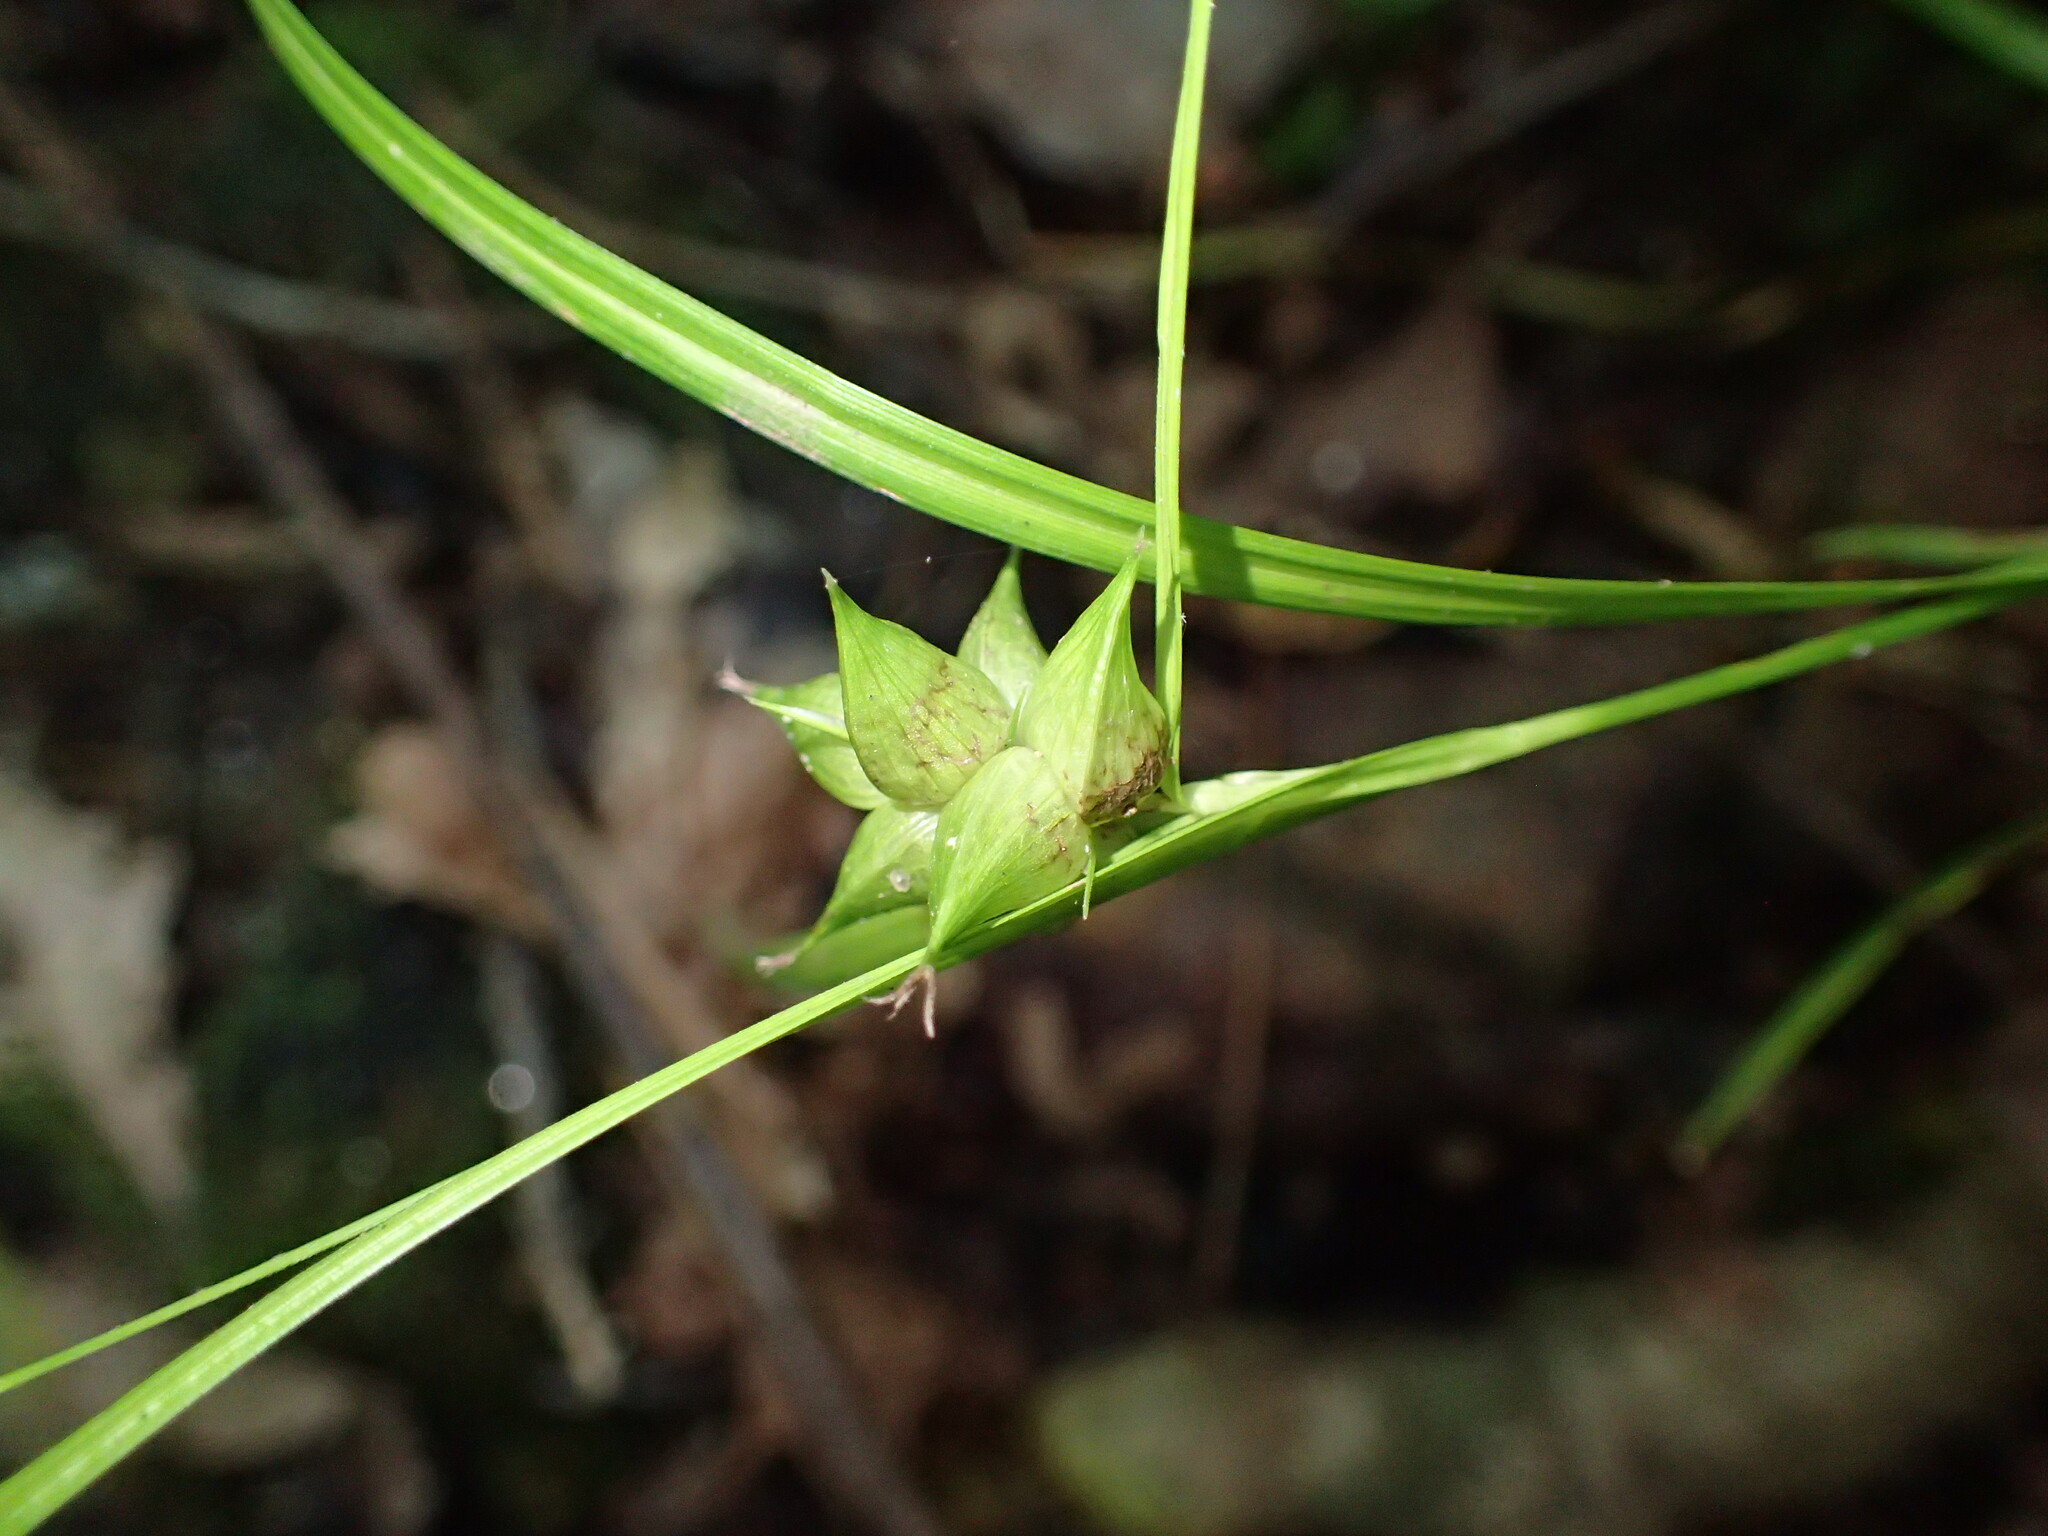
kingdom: Plantae
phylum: Tracheophyta
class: Liliopsida
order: Poales
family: Cyperaceae
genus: Carex
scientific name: Carex intumescens
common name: Greater bladder sedge
